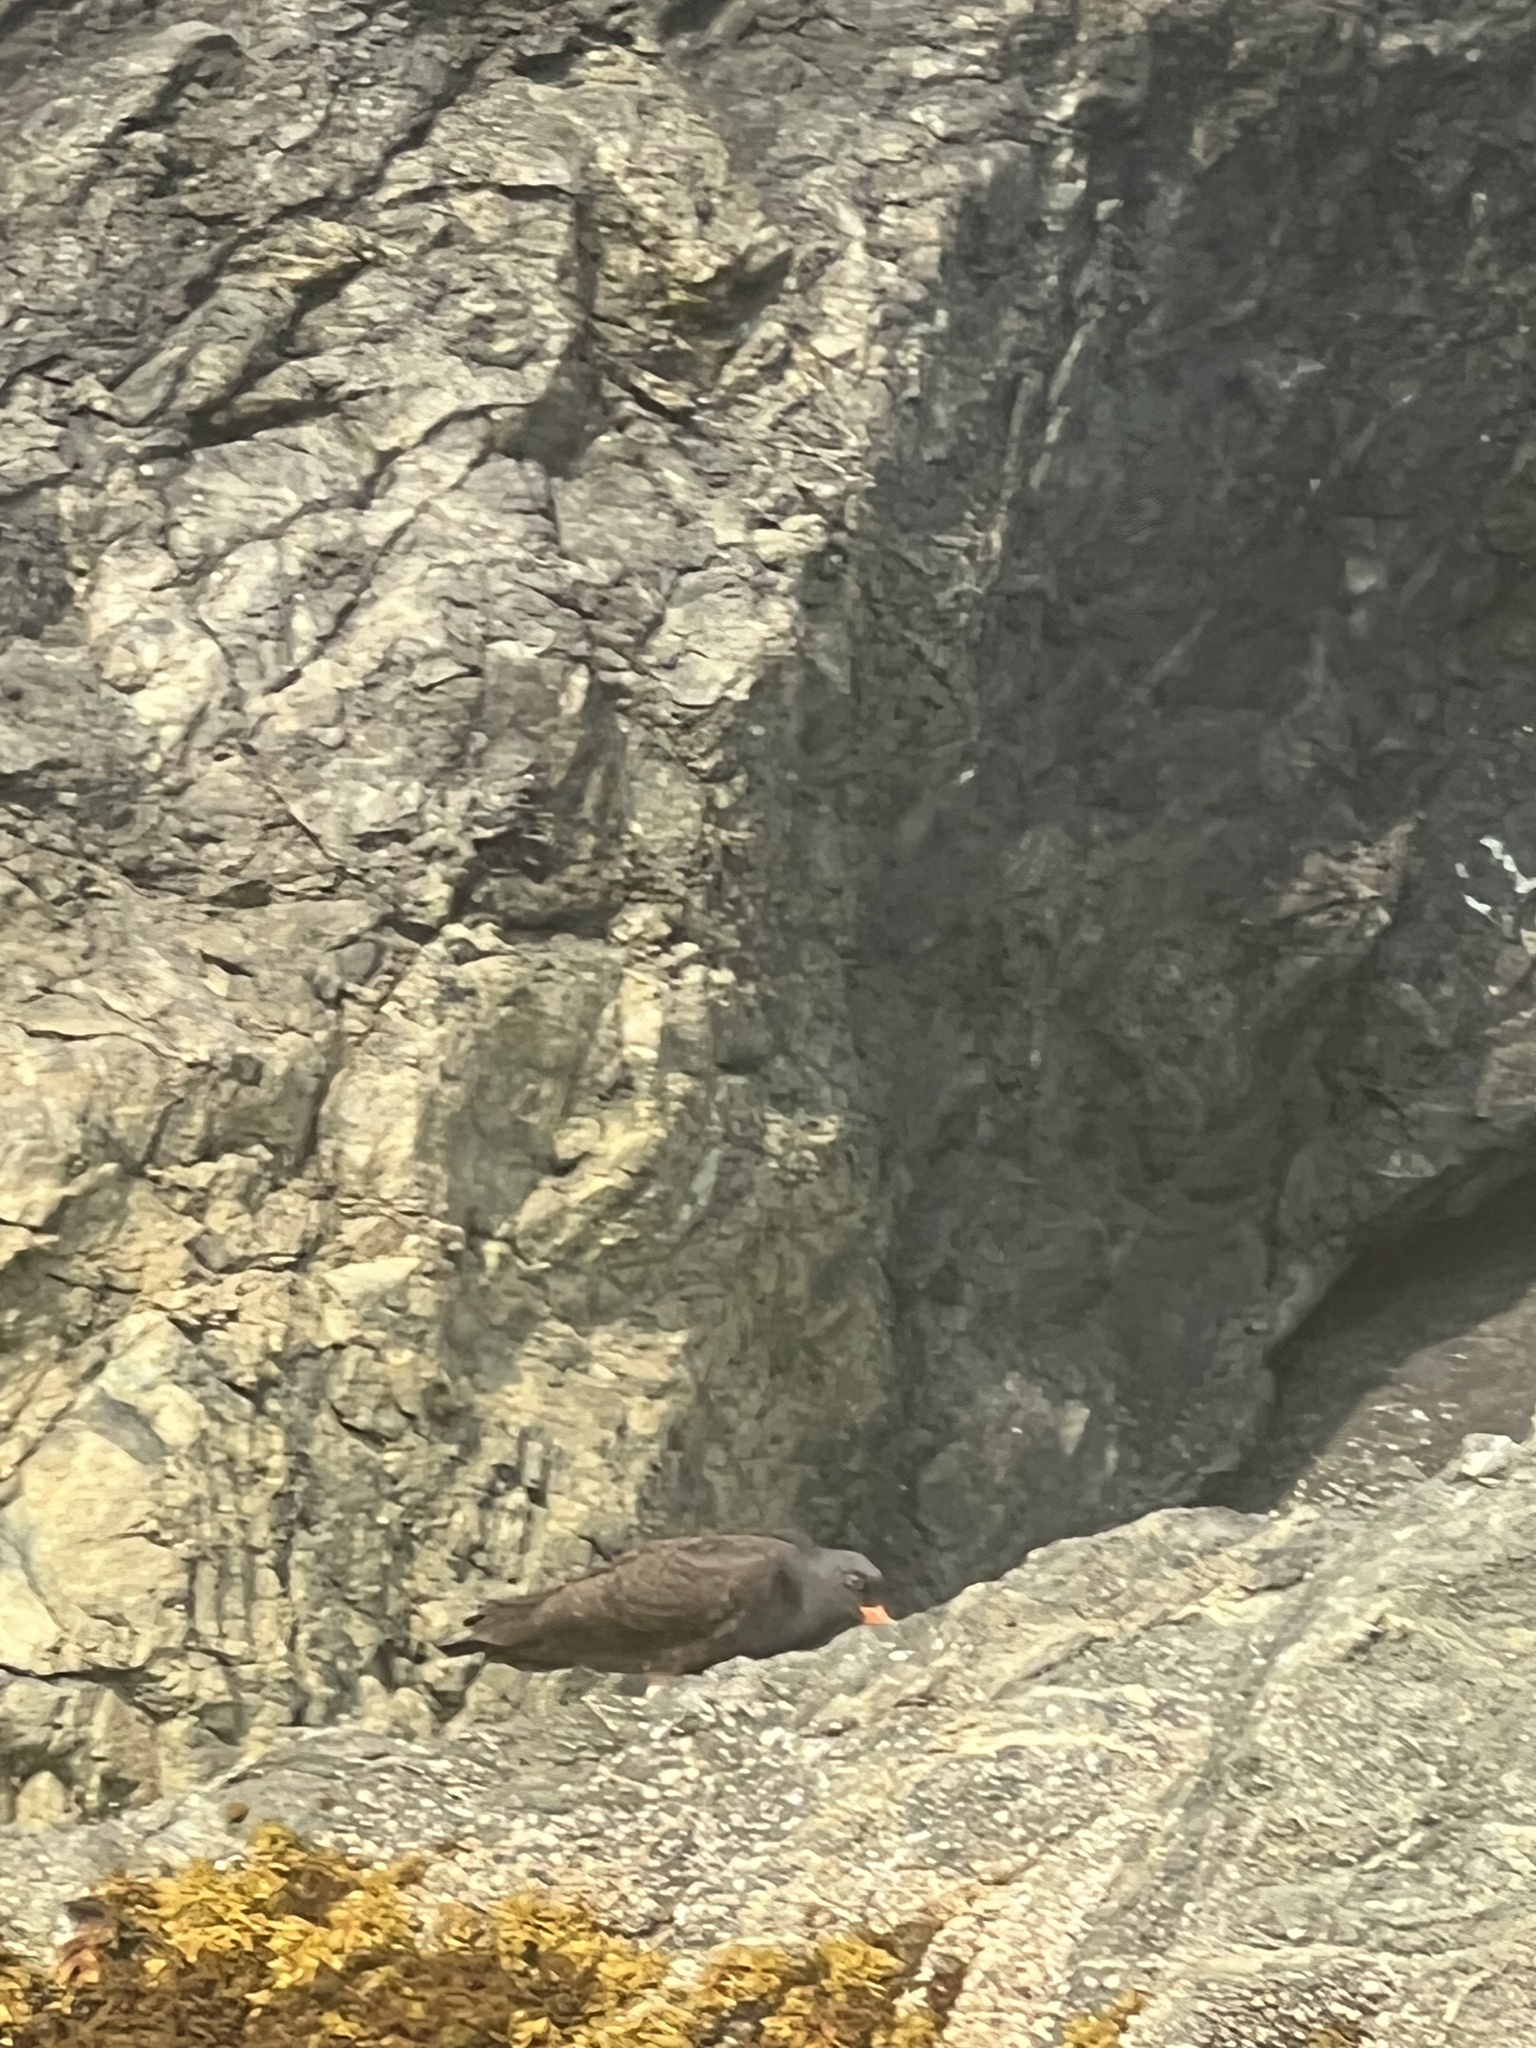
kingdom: Animalia
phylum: Chordata
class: Aves
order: Charadriiformes
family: Haematopodidae
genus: Haematopus
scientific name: Haematopus bachmani
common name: Black oystercatcher
